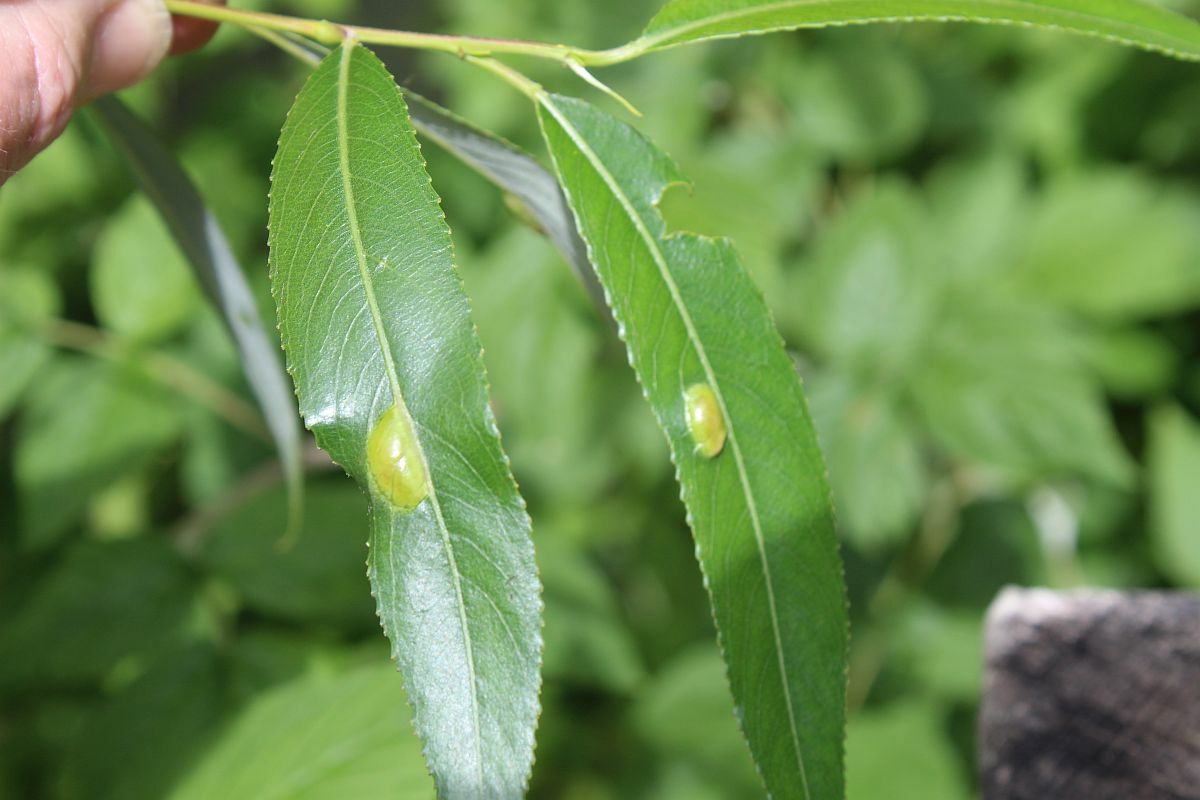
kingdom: Animalia
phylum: Arthropoda
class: Insecta
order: Hymenoptera
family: Tenthredinidae
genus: Pontania
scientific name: Pontania proxima
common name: Common sawfly
